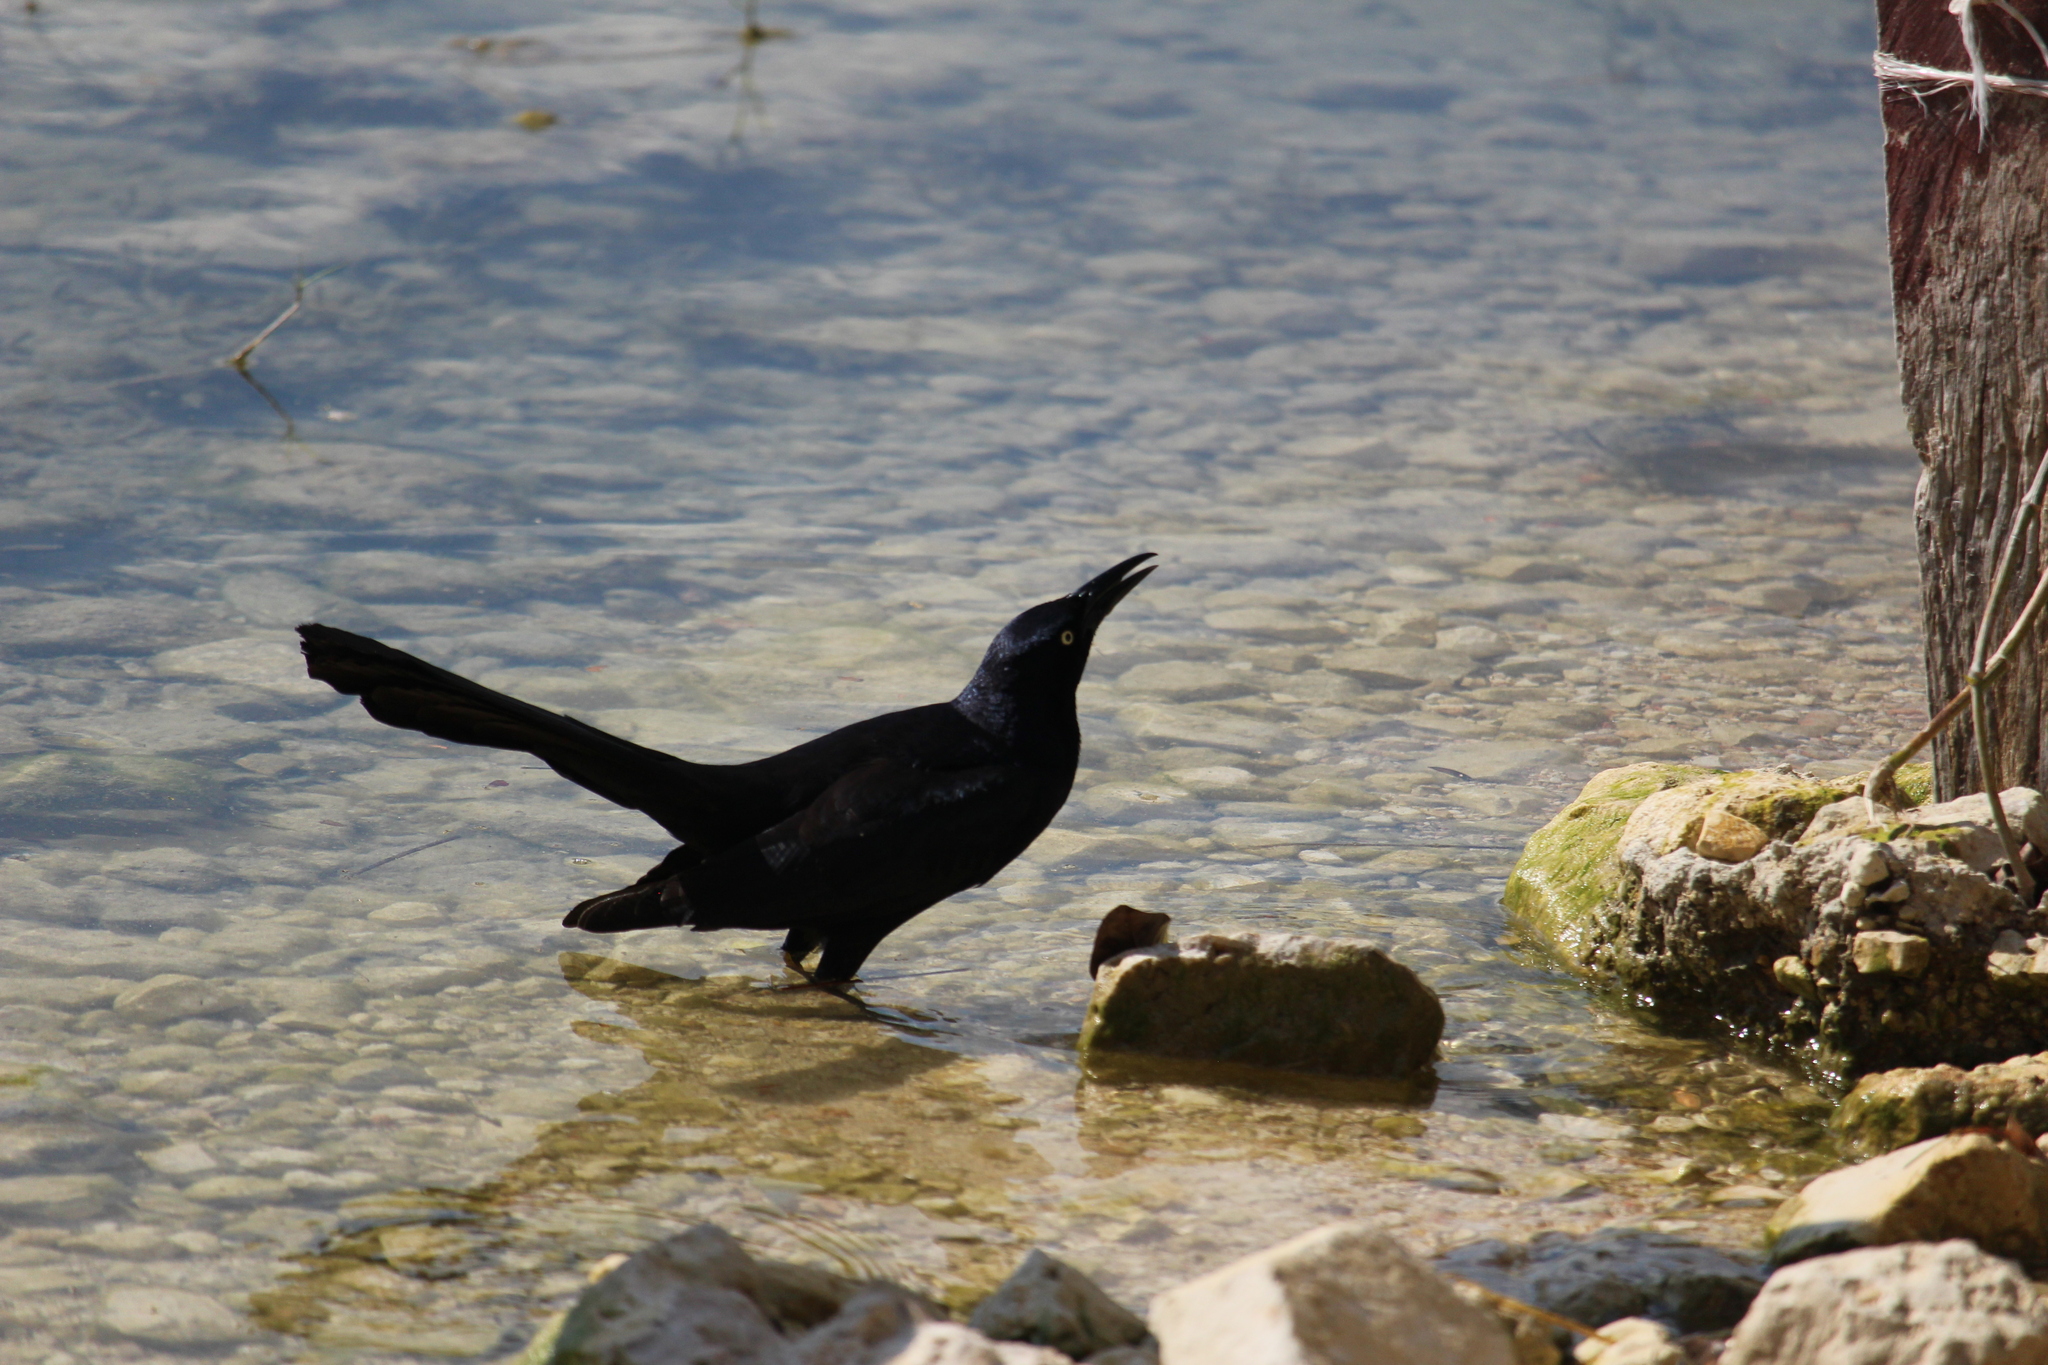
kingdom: Animalia
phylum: Chordata
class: Aves
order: Passeriformes
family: Icteridae
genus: Quiscalus
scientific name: Quiscalus mexicanus
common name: Great-tailed grackle
